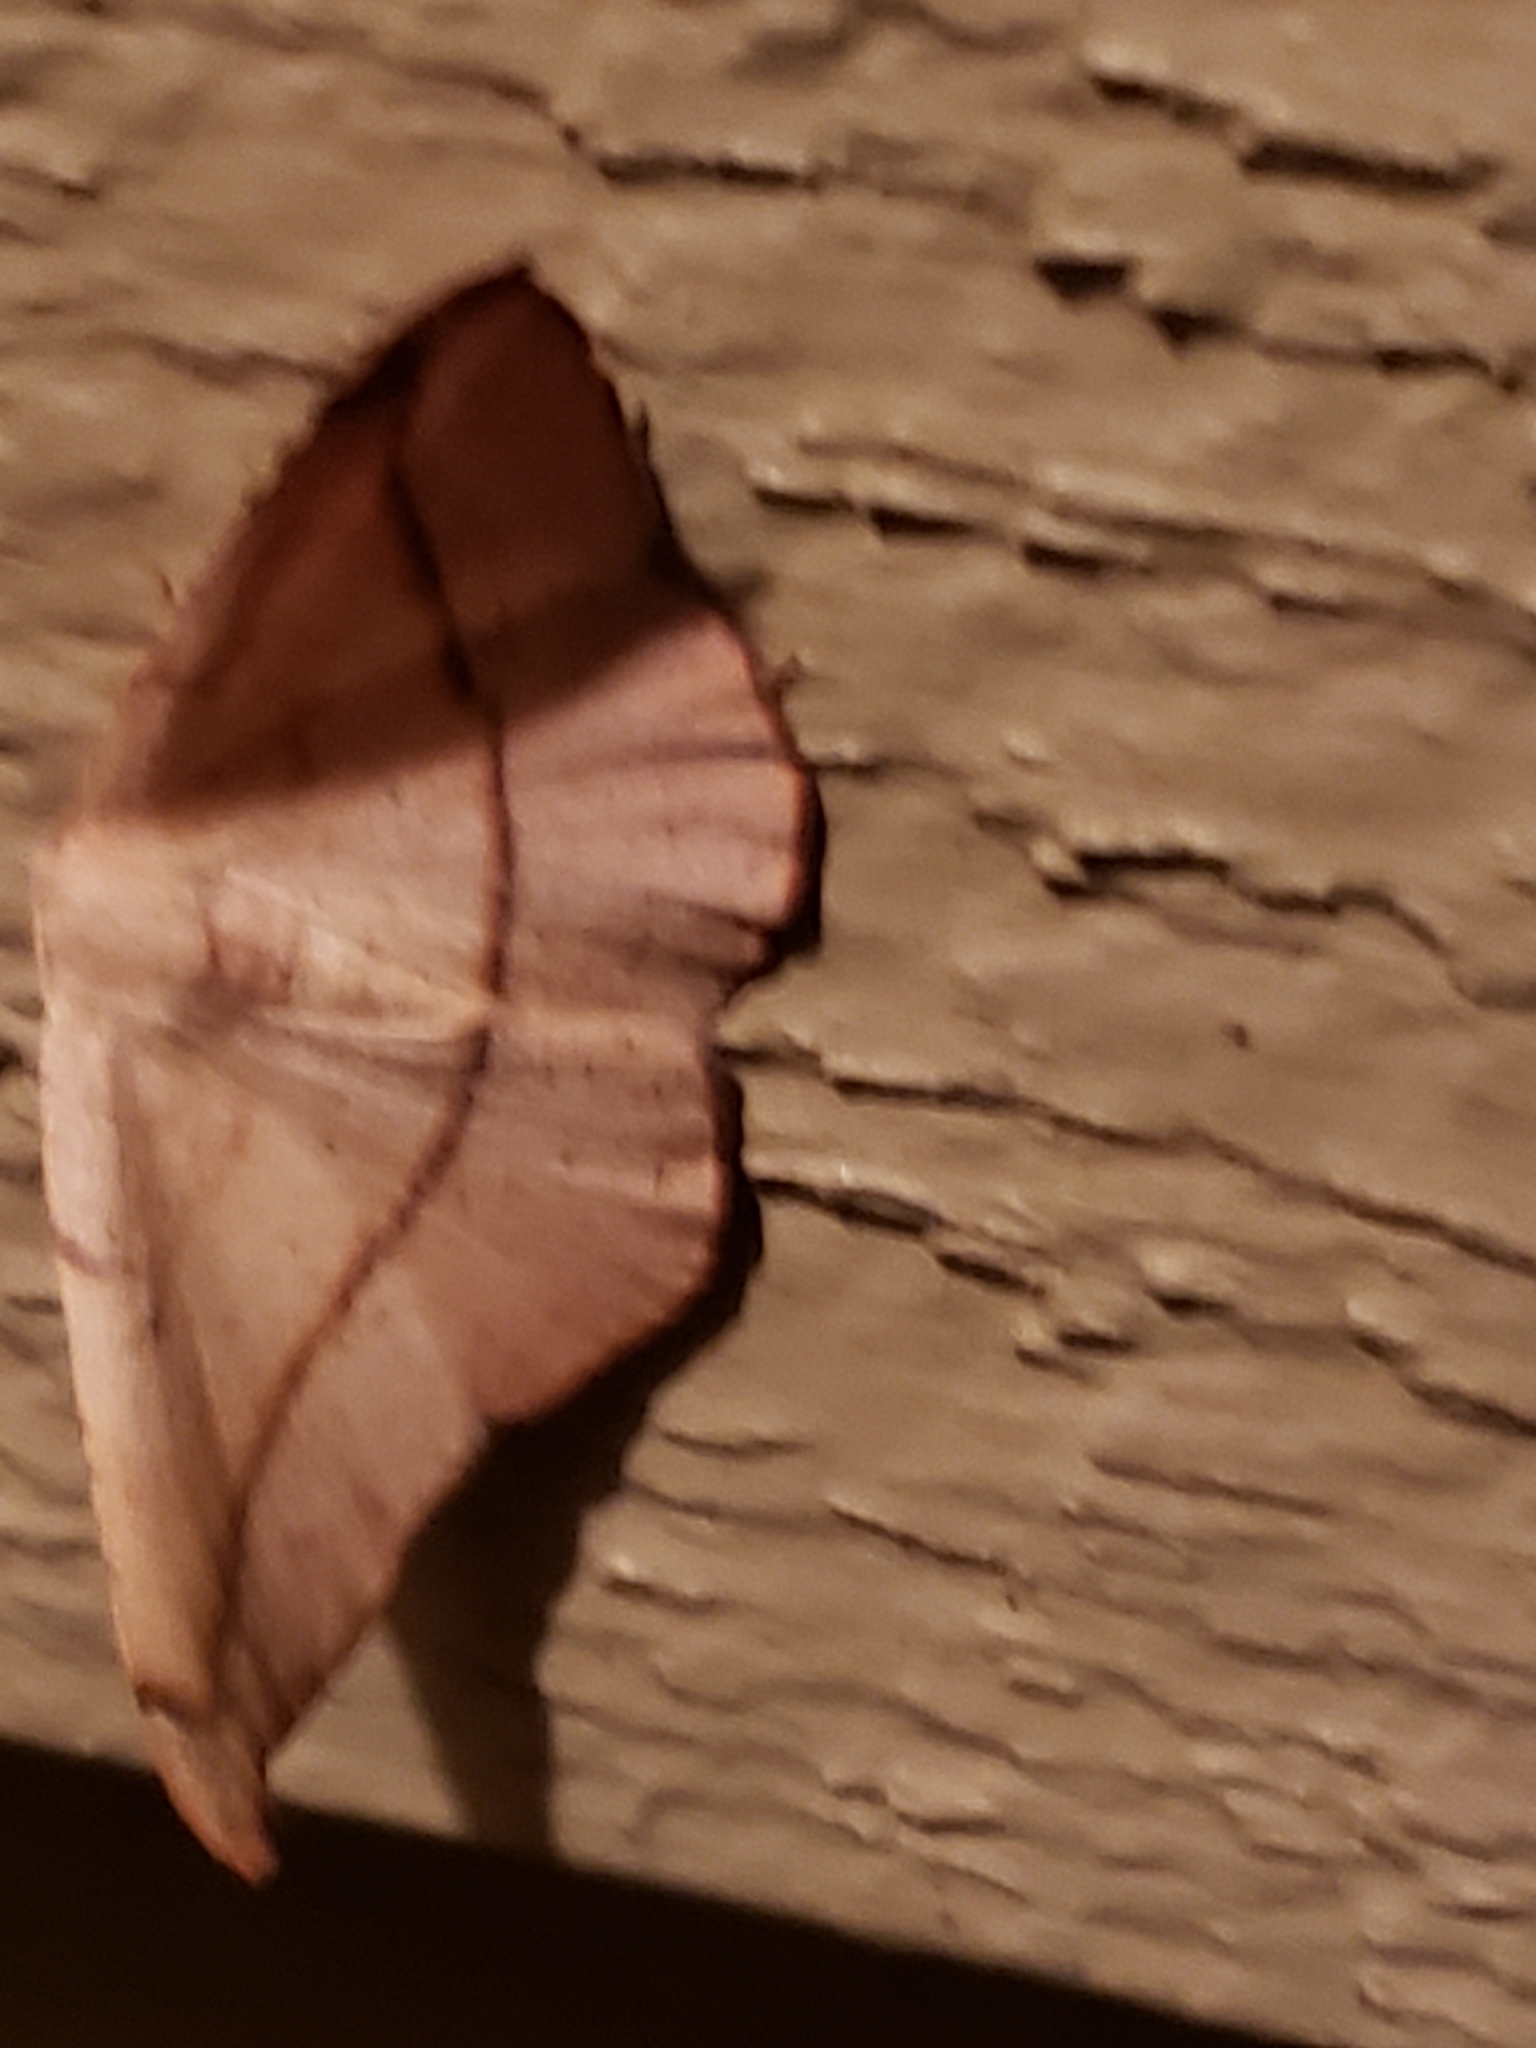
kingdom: Animalia
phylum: Arthropoda
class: Insecta
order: Lepidoptera
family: Geometridae
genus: Patalene
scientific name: Patalene olyzonaria
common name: Juniper geometer moth
